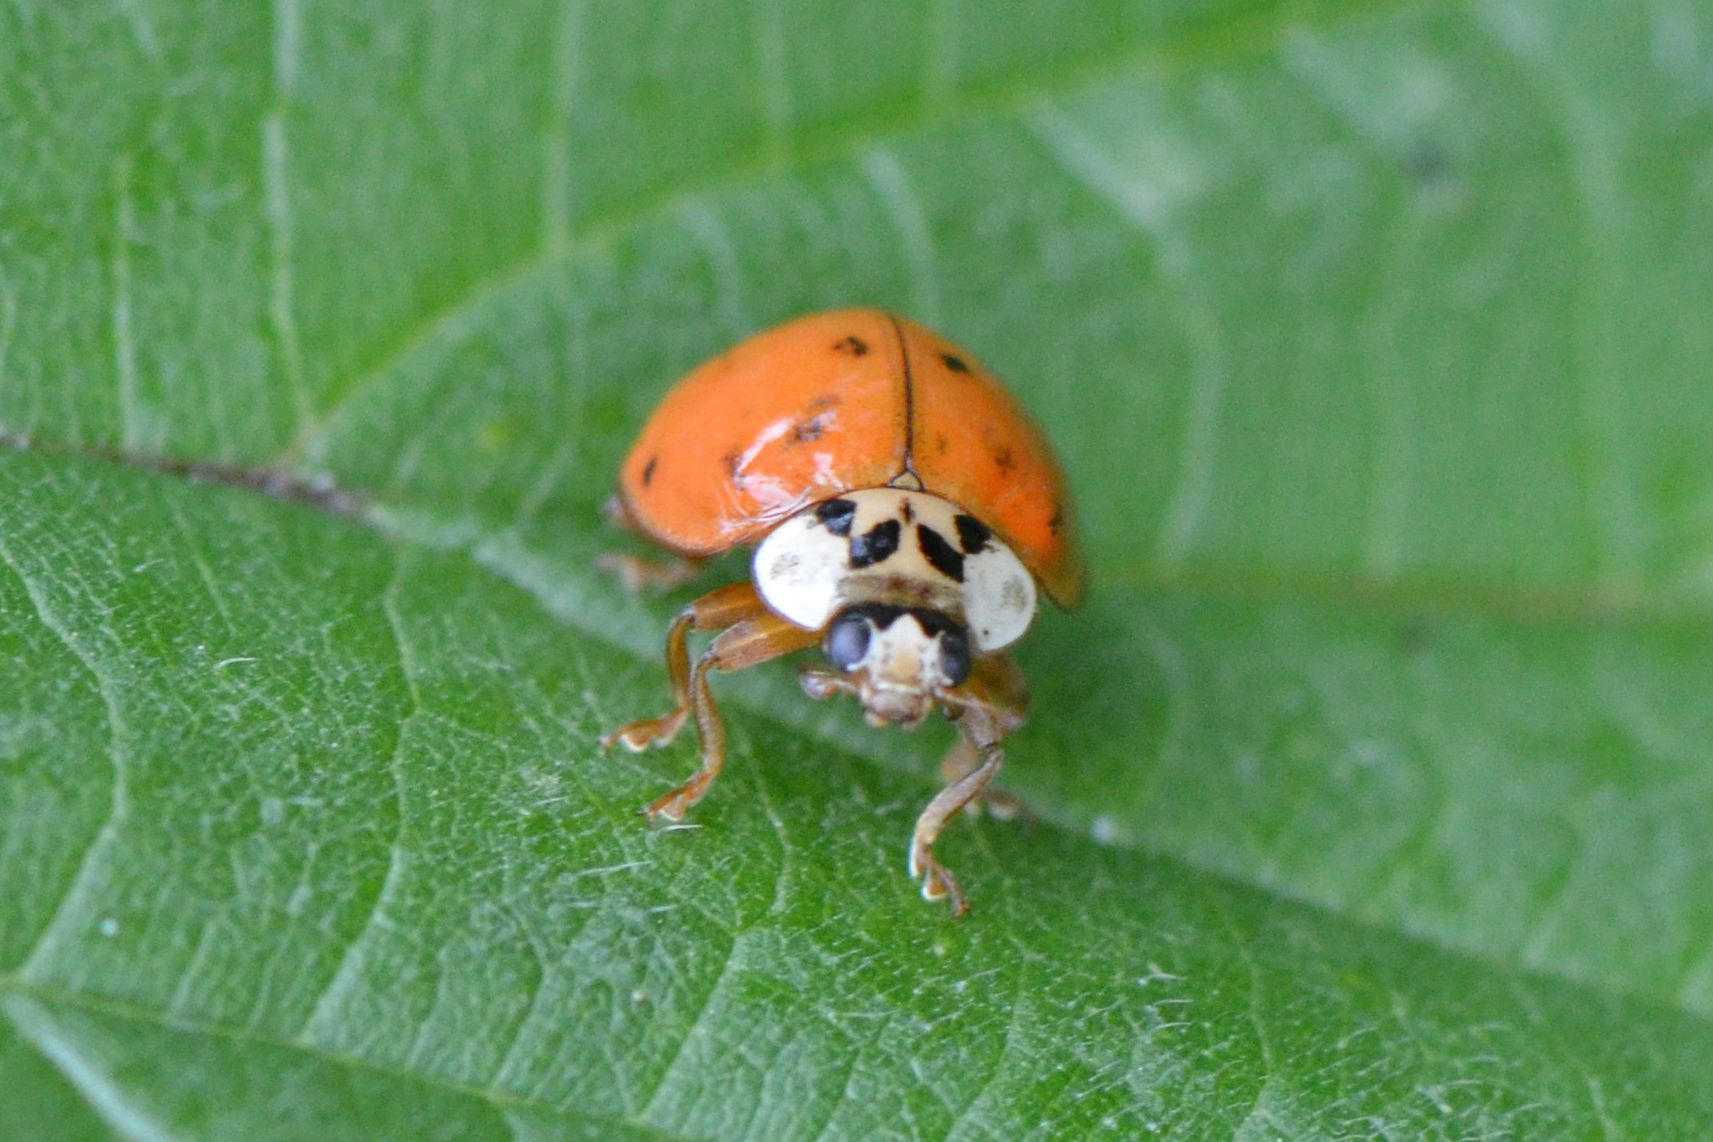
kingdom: Animalia
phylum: Arthropoda
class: Insecta
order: Coleoptera
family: Coccinellidae
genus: Harmonia
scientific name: Harmonia axyridis
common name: Harlequin ladybird
